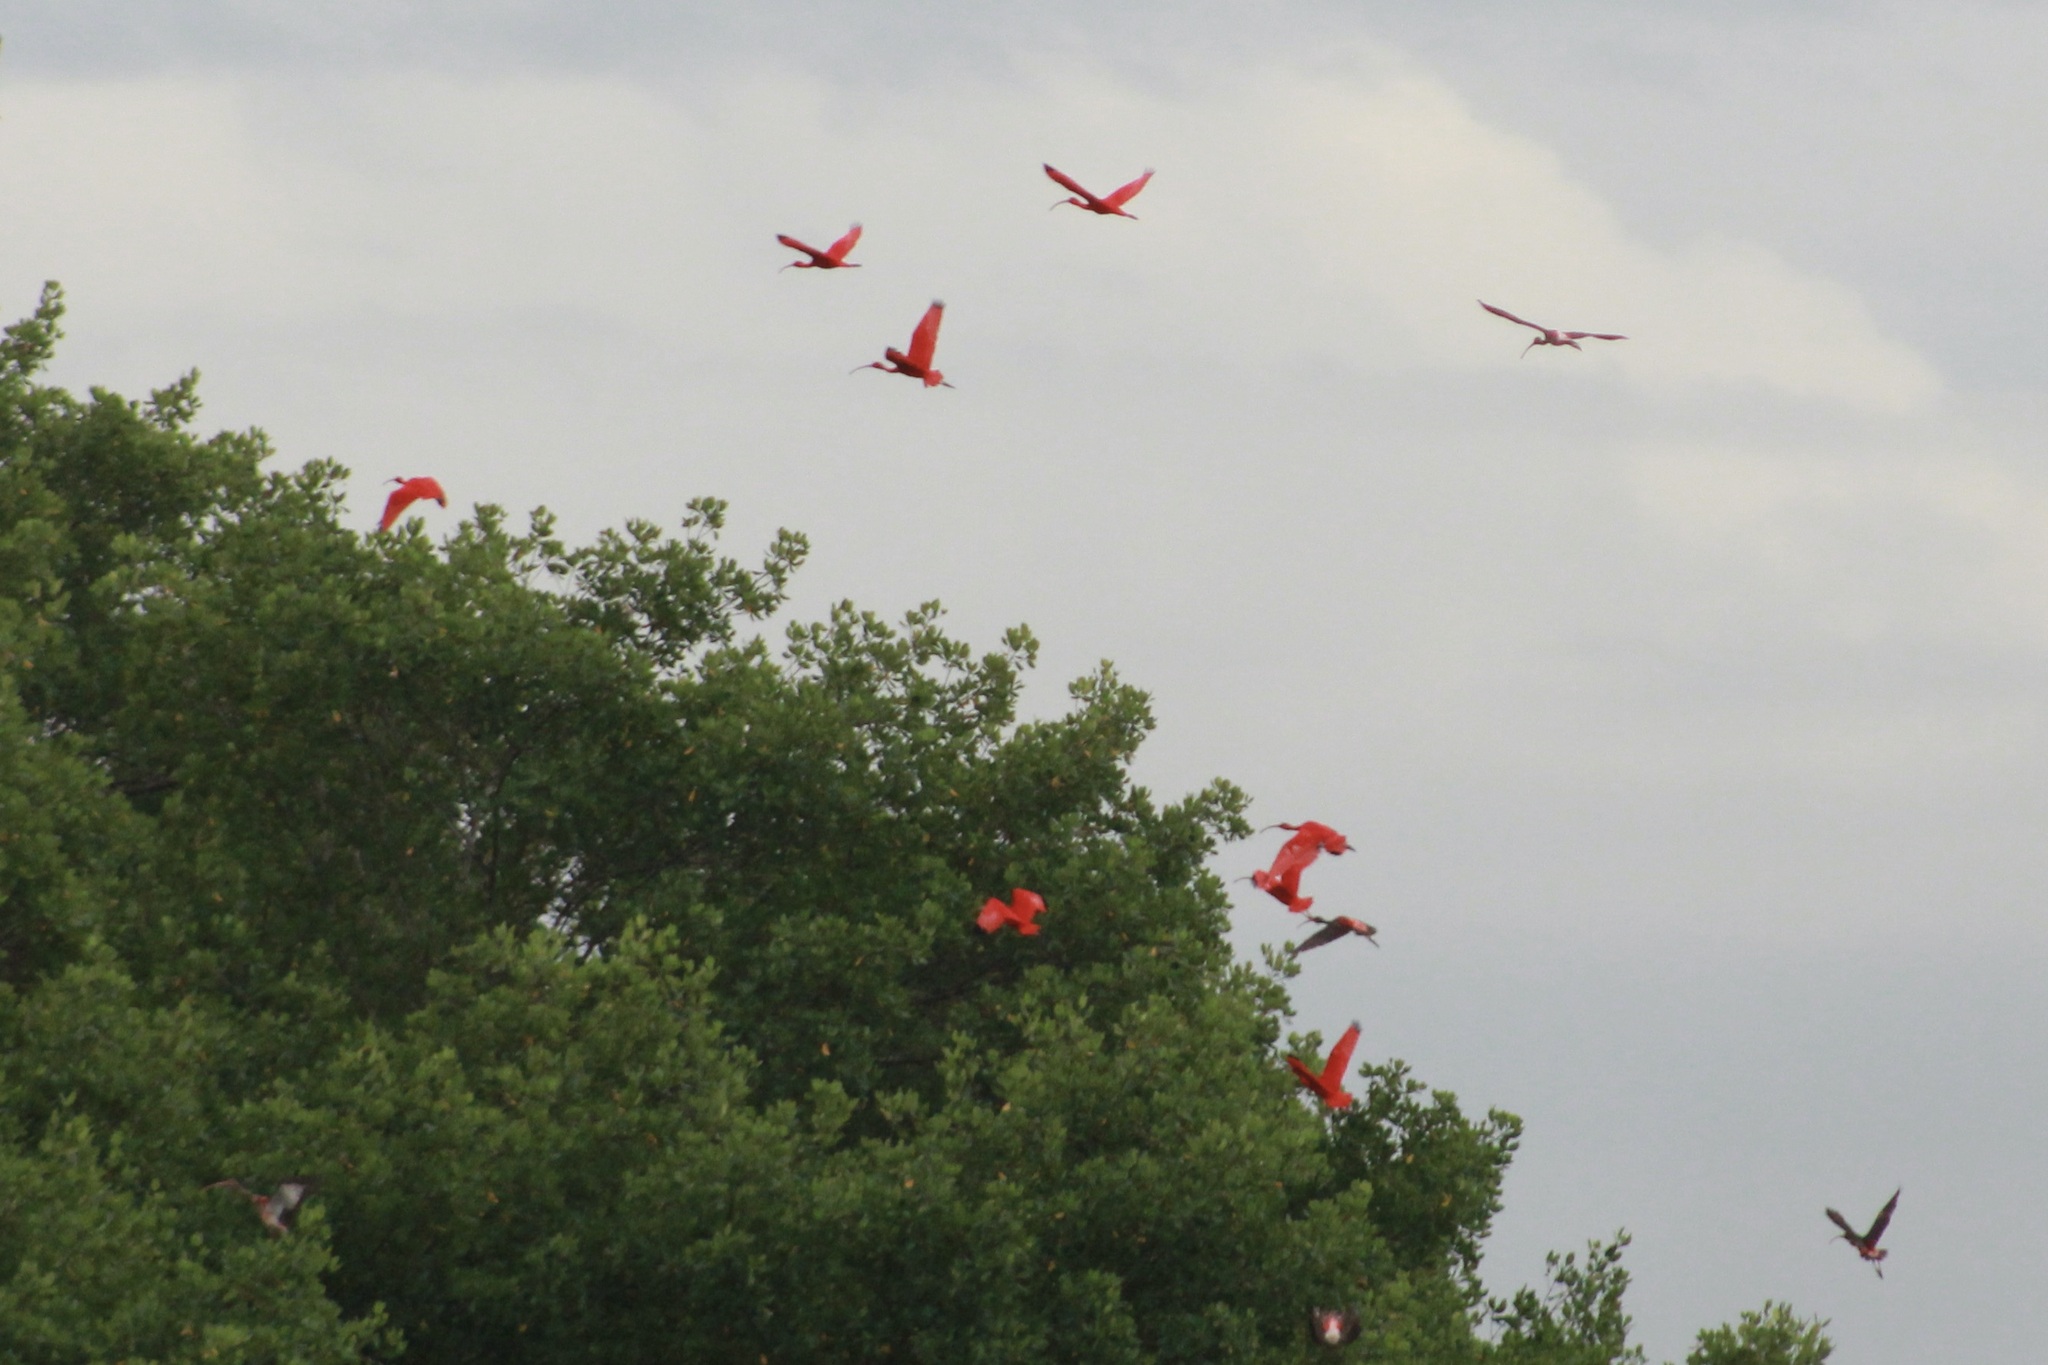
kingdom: Animalia
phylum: Chordata
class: Aves
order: Pelecaniformes
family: Threskiornithidae
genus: Eudocimus
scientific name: Eudocimus ruber
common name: Scarlet ibis
